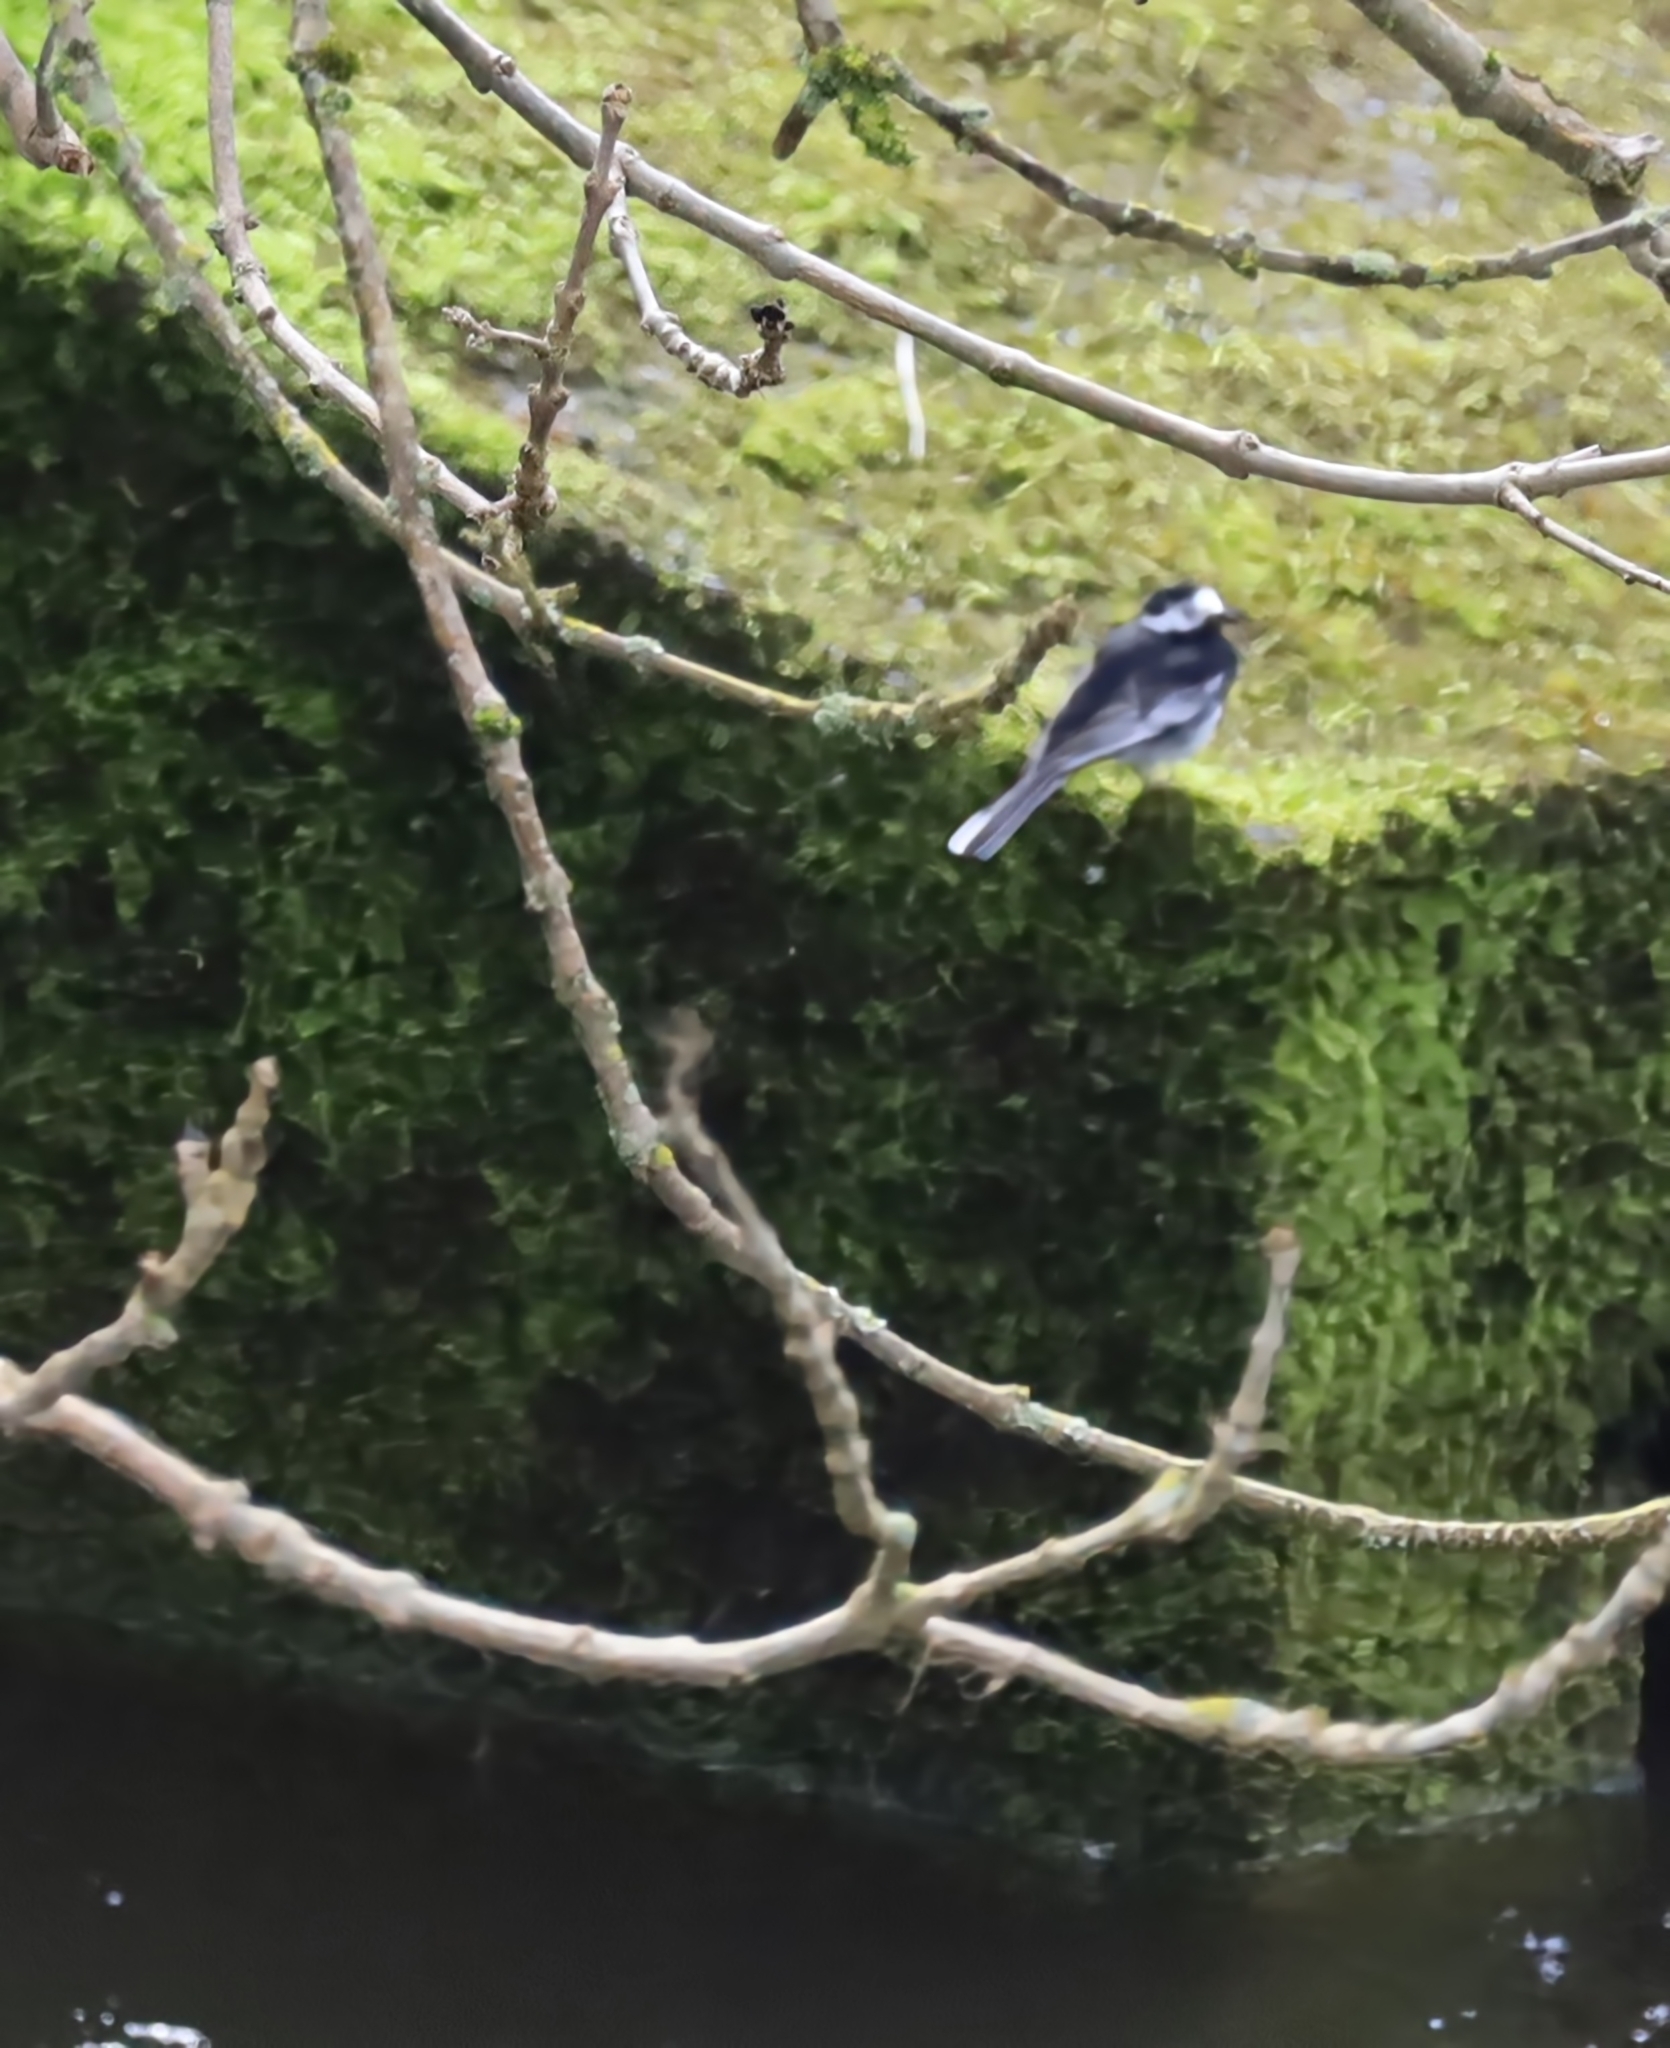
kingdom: Animalia
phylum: Chordata
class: Aves
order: Passeriformes
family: Motacillidae
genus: Motacilla
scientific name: Motacilla alba
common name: White wagtail
